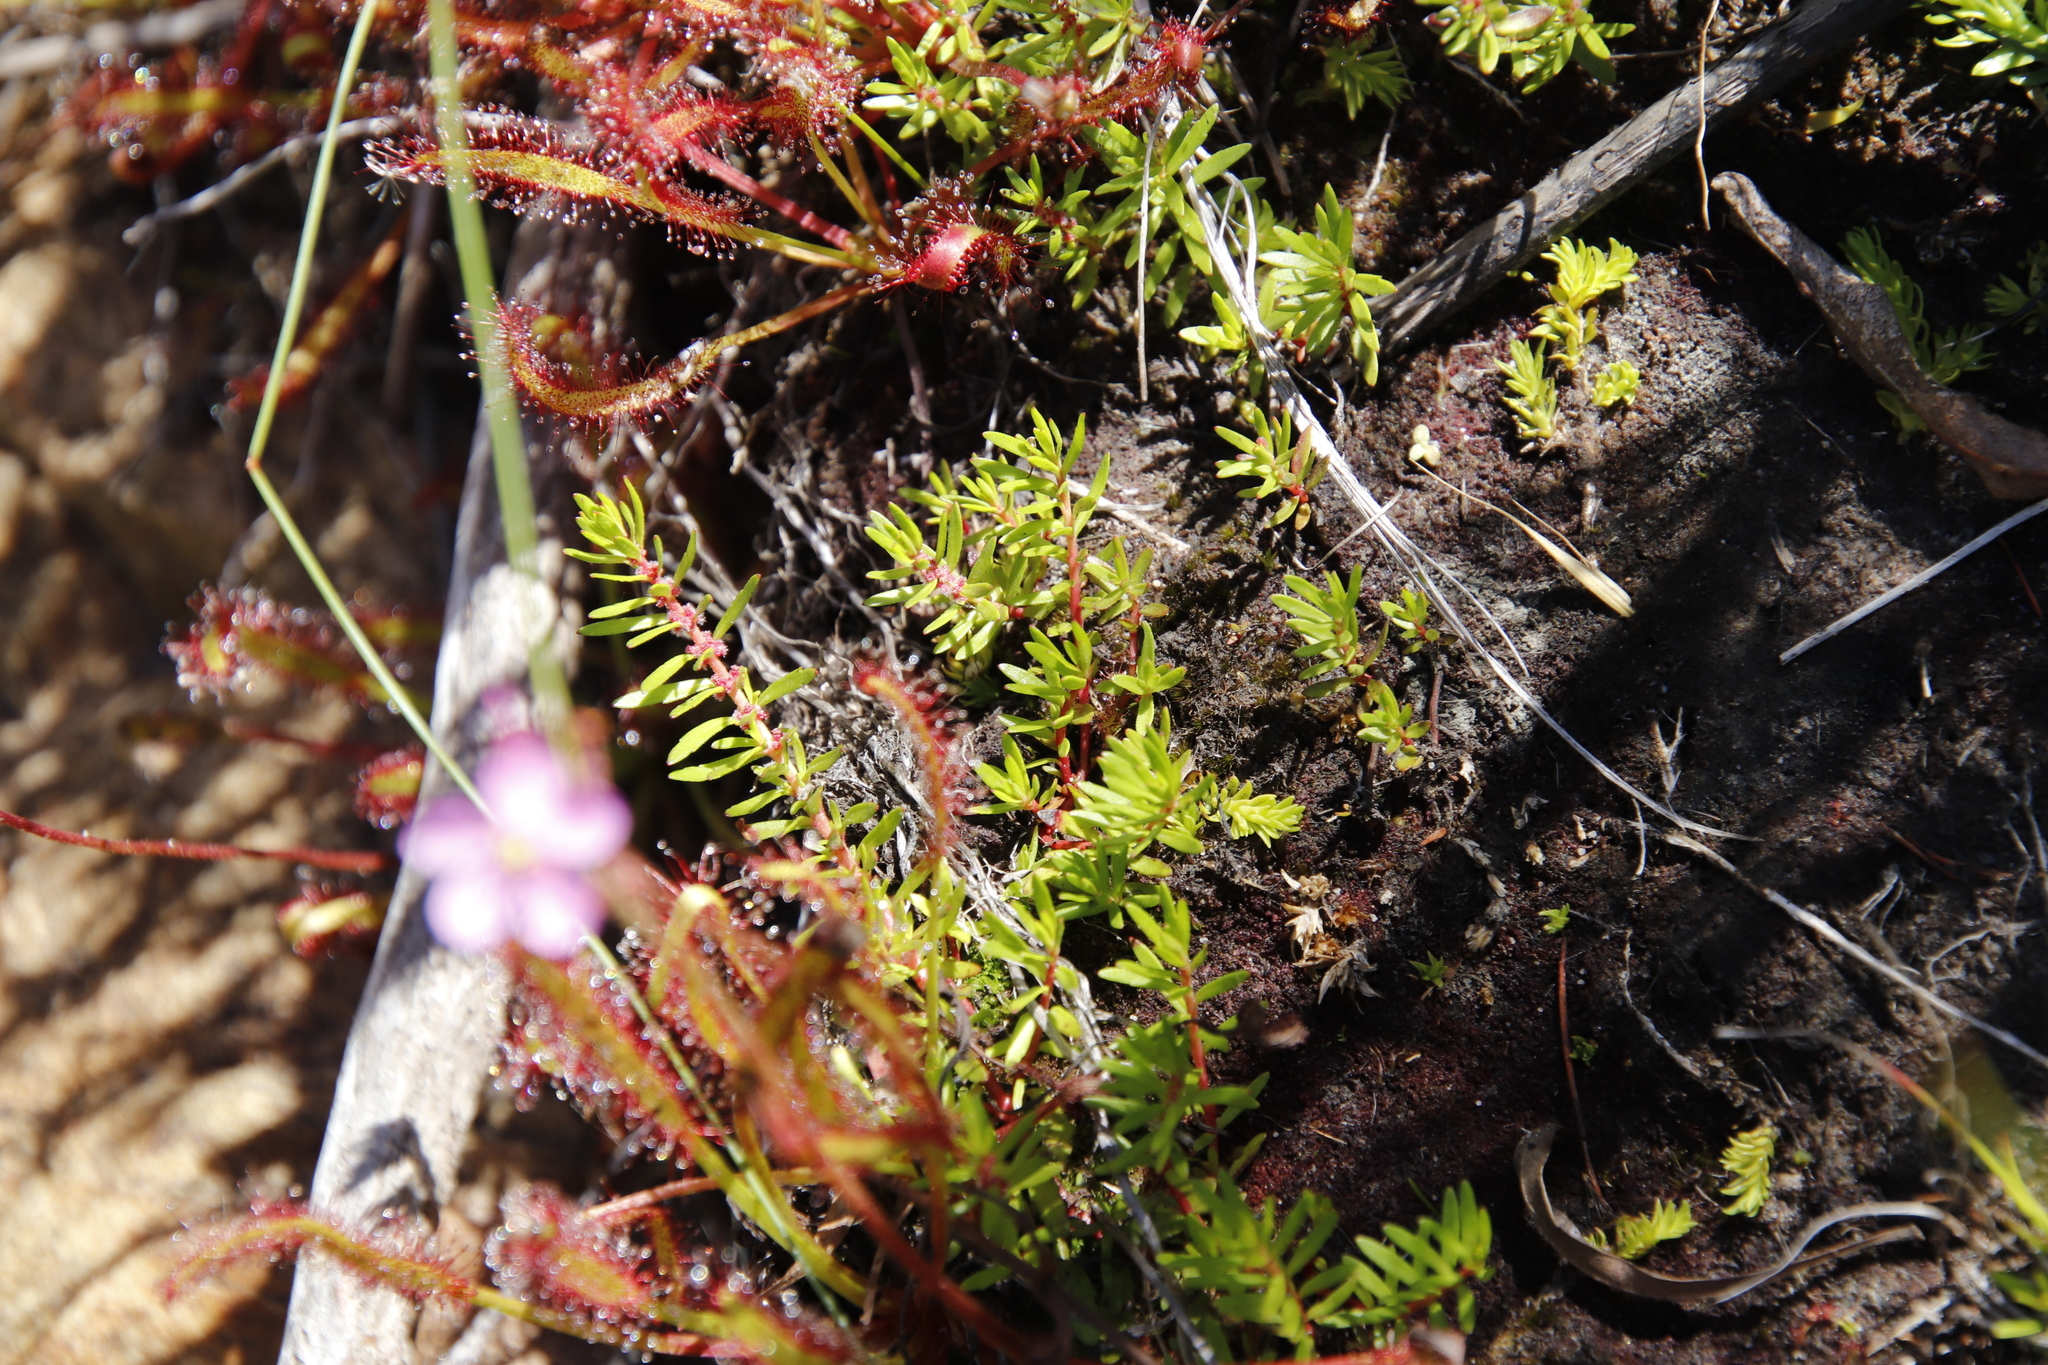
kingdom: Plantae
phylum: Tracheophyta
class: Magnoliopsida
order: Saxifragales
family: Haloragaceae
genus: Laurembergia
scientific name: Laurembergia repens
